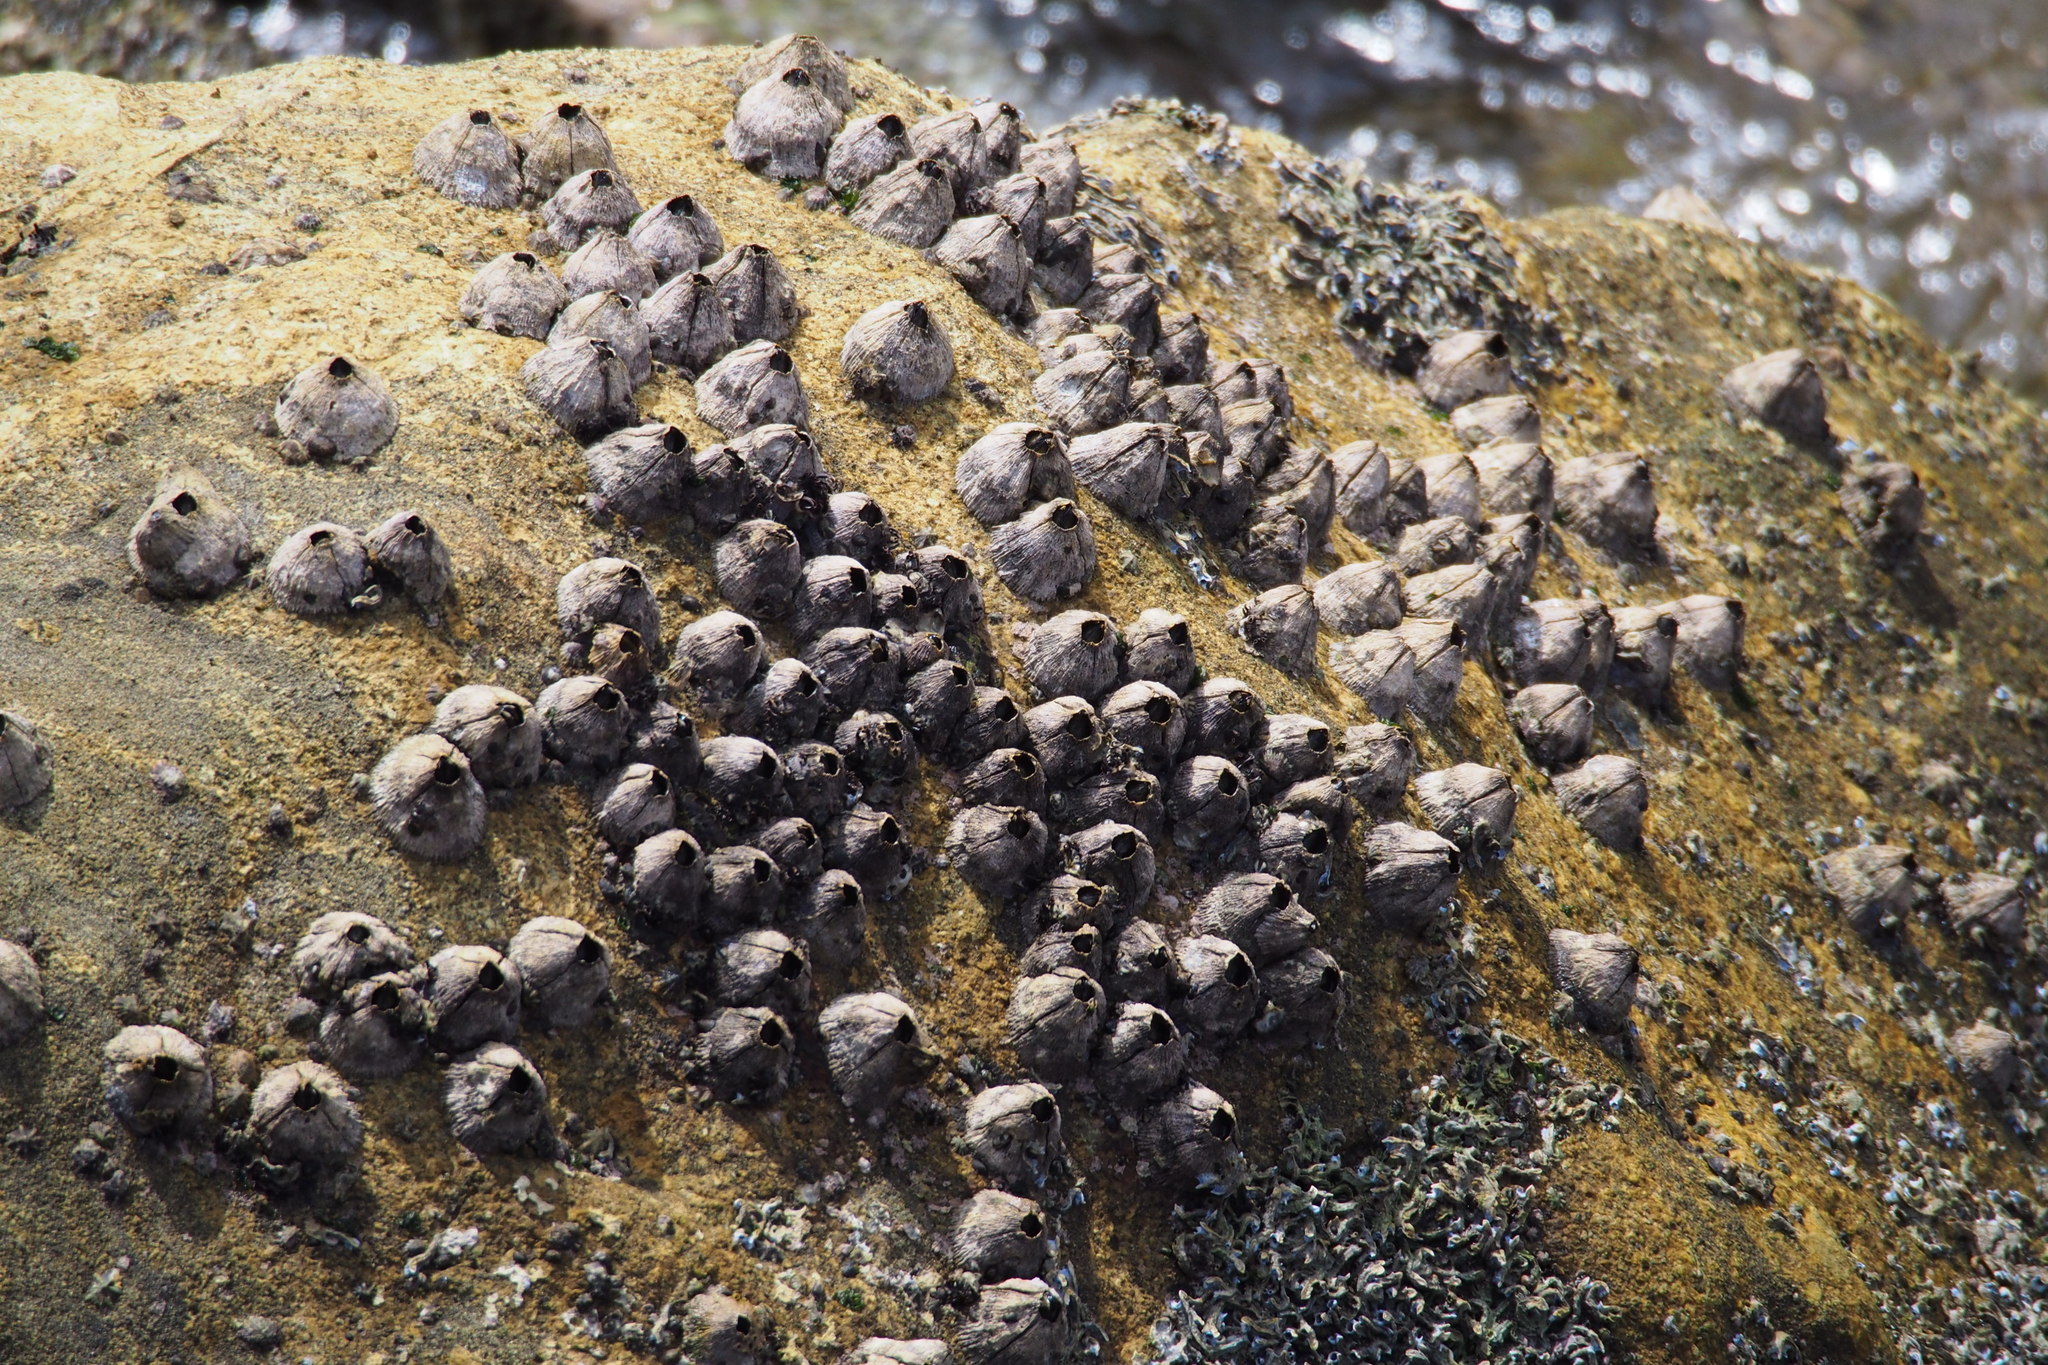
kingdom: Animalia
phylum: Arthropoda
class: Maxillopoda
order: Sessilia
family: Tetraclitidae
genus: Tetraclita
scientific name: Tetraclita japonica
